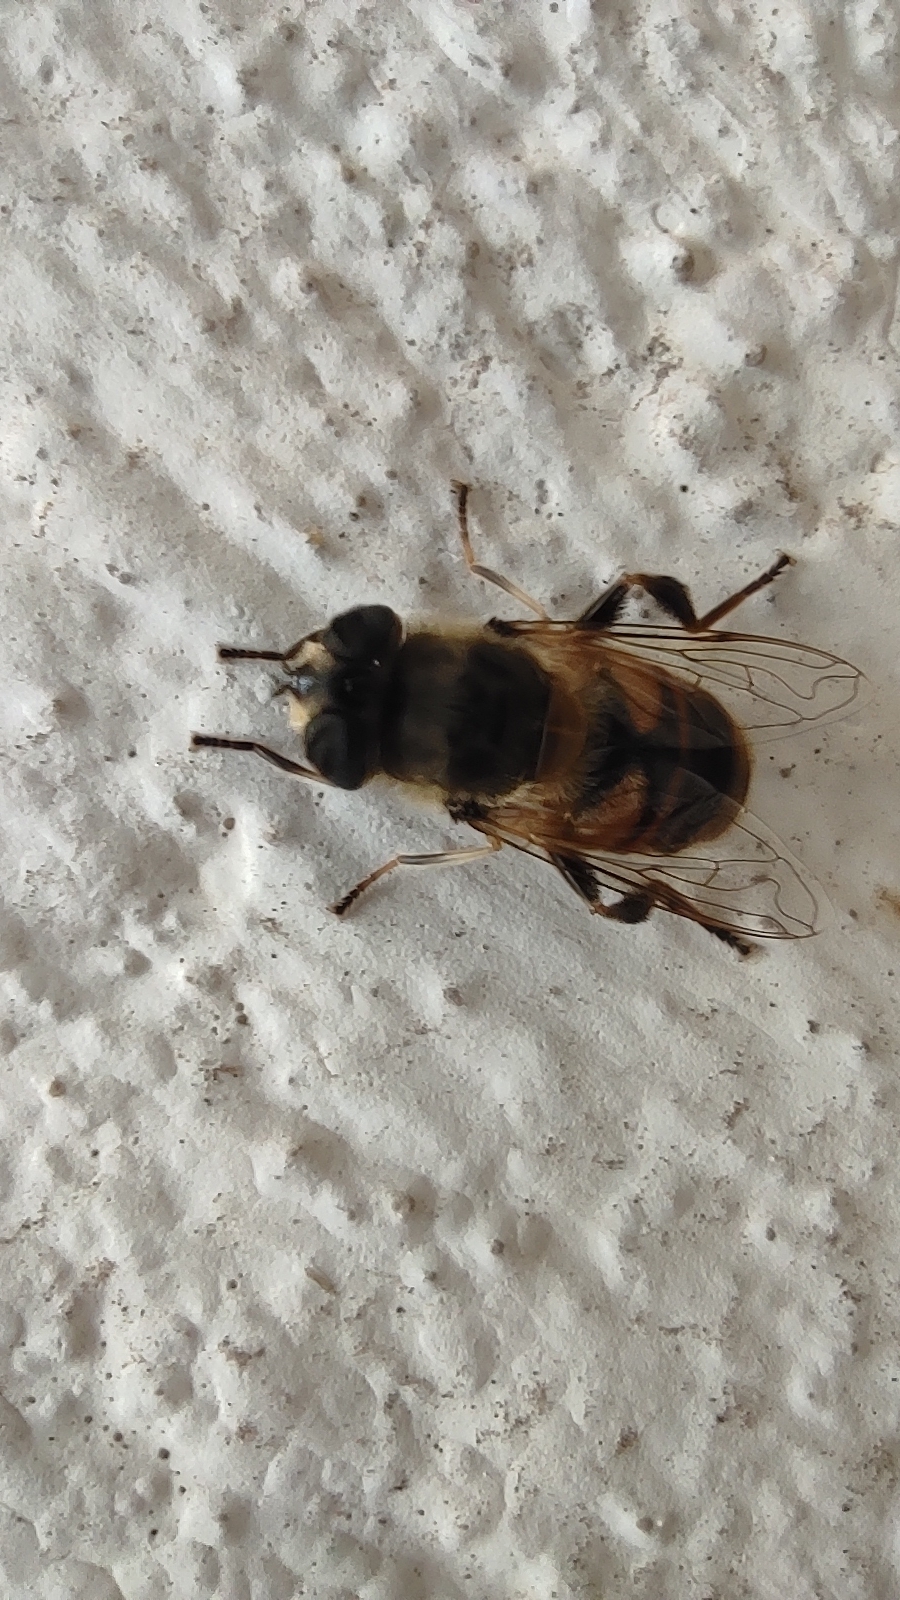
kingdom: Animalia
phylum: Arthropoda
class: Insecta
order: Diptera
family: Syrphidae
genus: Eristalis
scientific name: Eristalis tenax
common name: Drone fly
